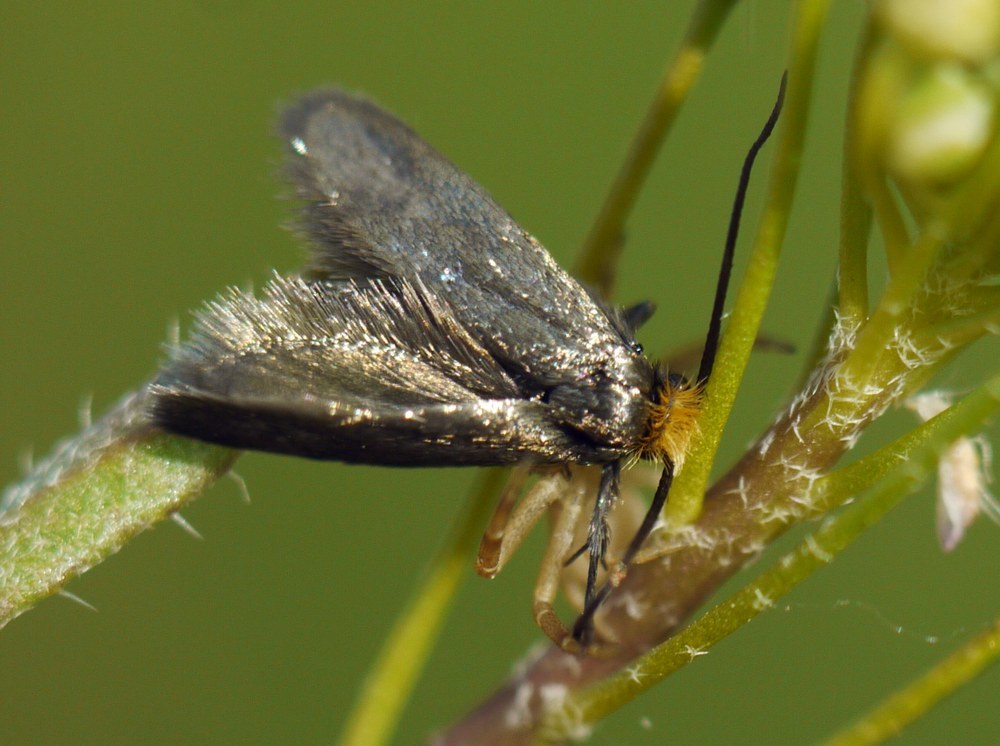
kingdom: Animalia
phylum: Arthropoda
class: Insecta
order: Lepidoptera
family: Adelidae
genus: Cauchas
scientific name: Cauchas rufifrontella
